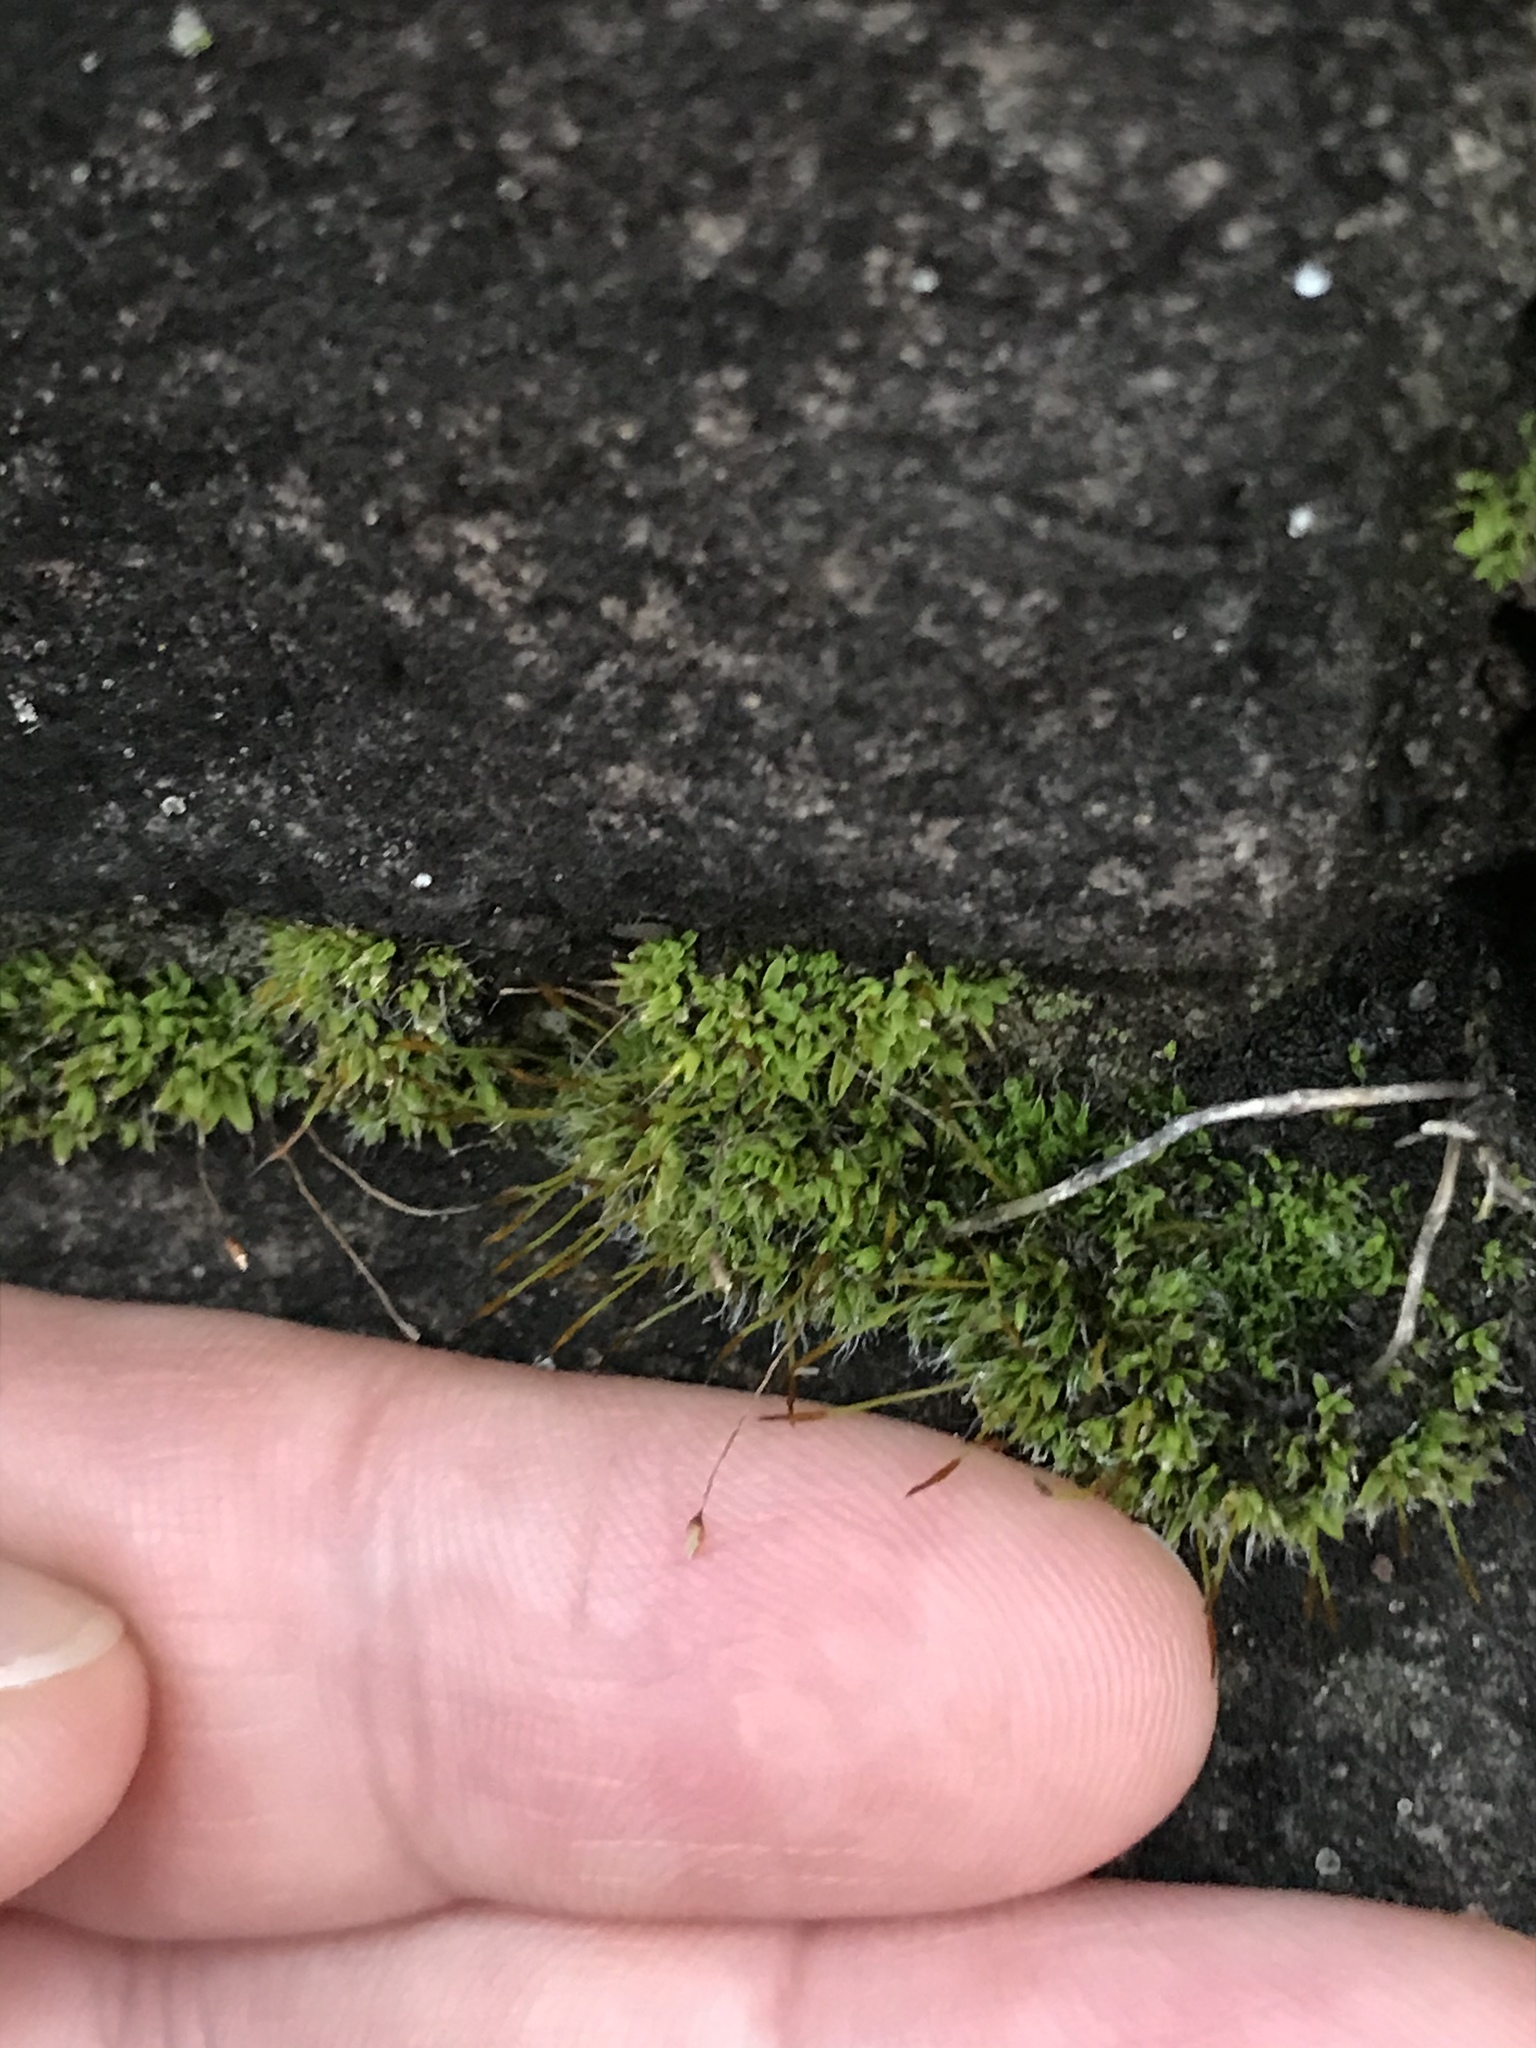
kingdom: Plantae
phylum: Bryophyta
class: Bryopsida
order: Pottiales
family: Pottiaceae
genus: Tortula
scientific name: Tortula muralis
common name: Wall screw-moss
